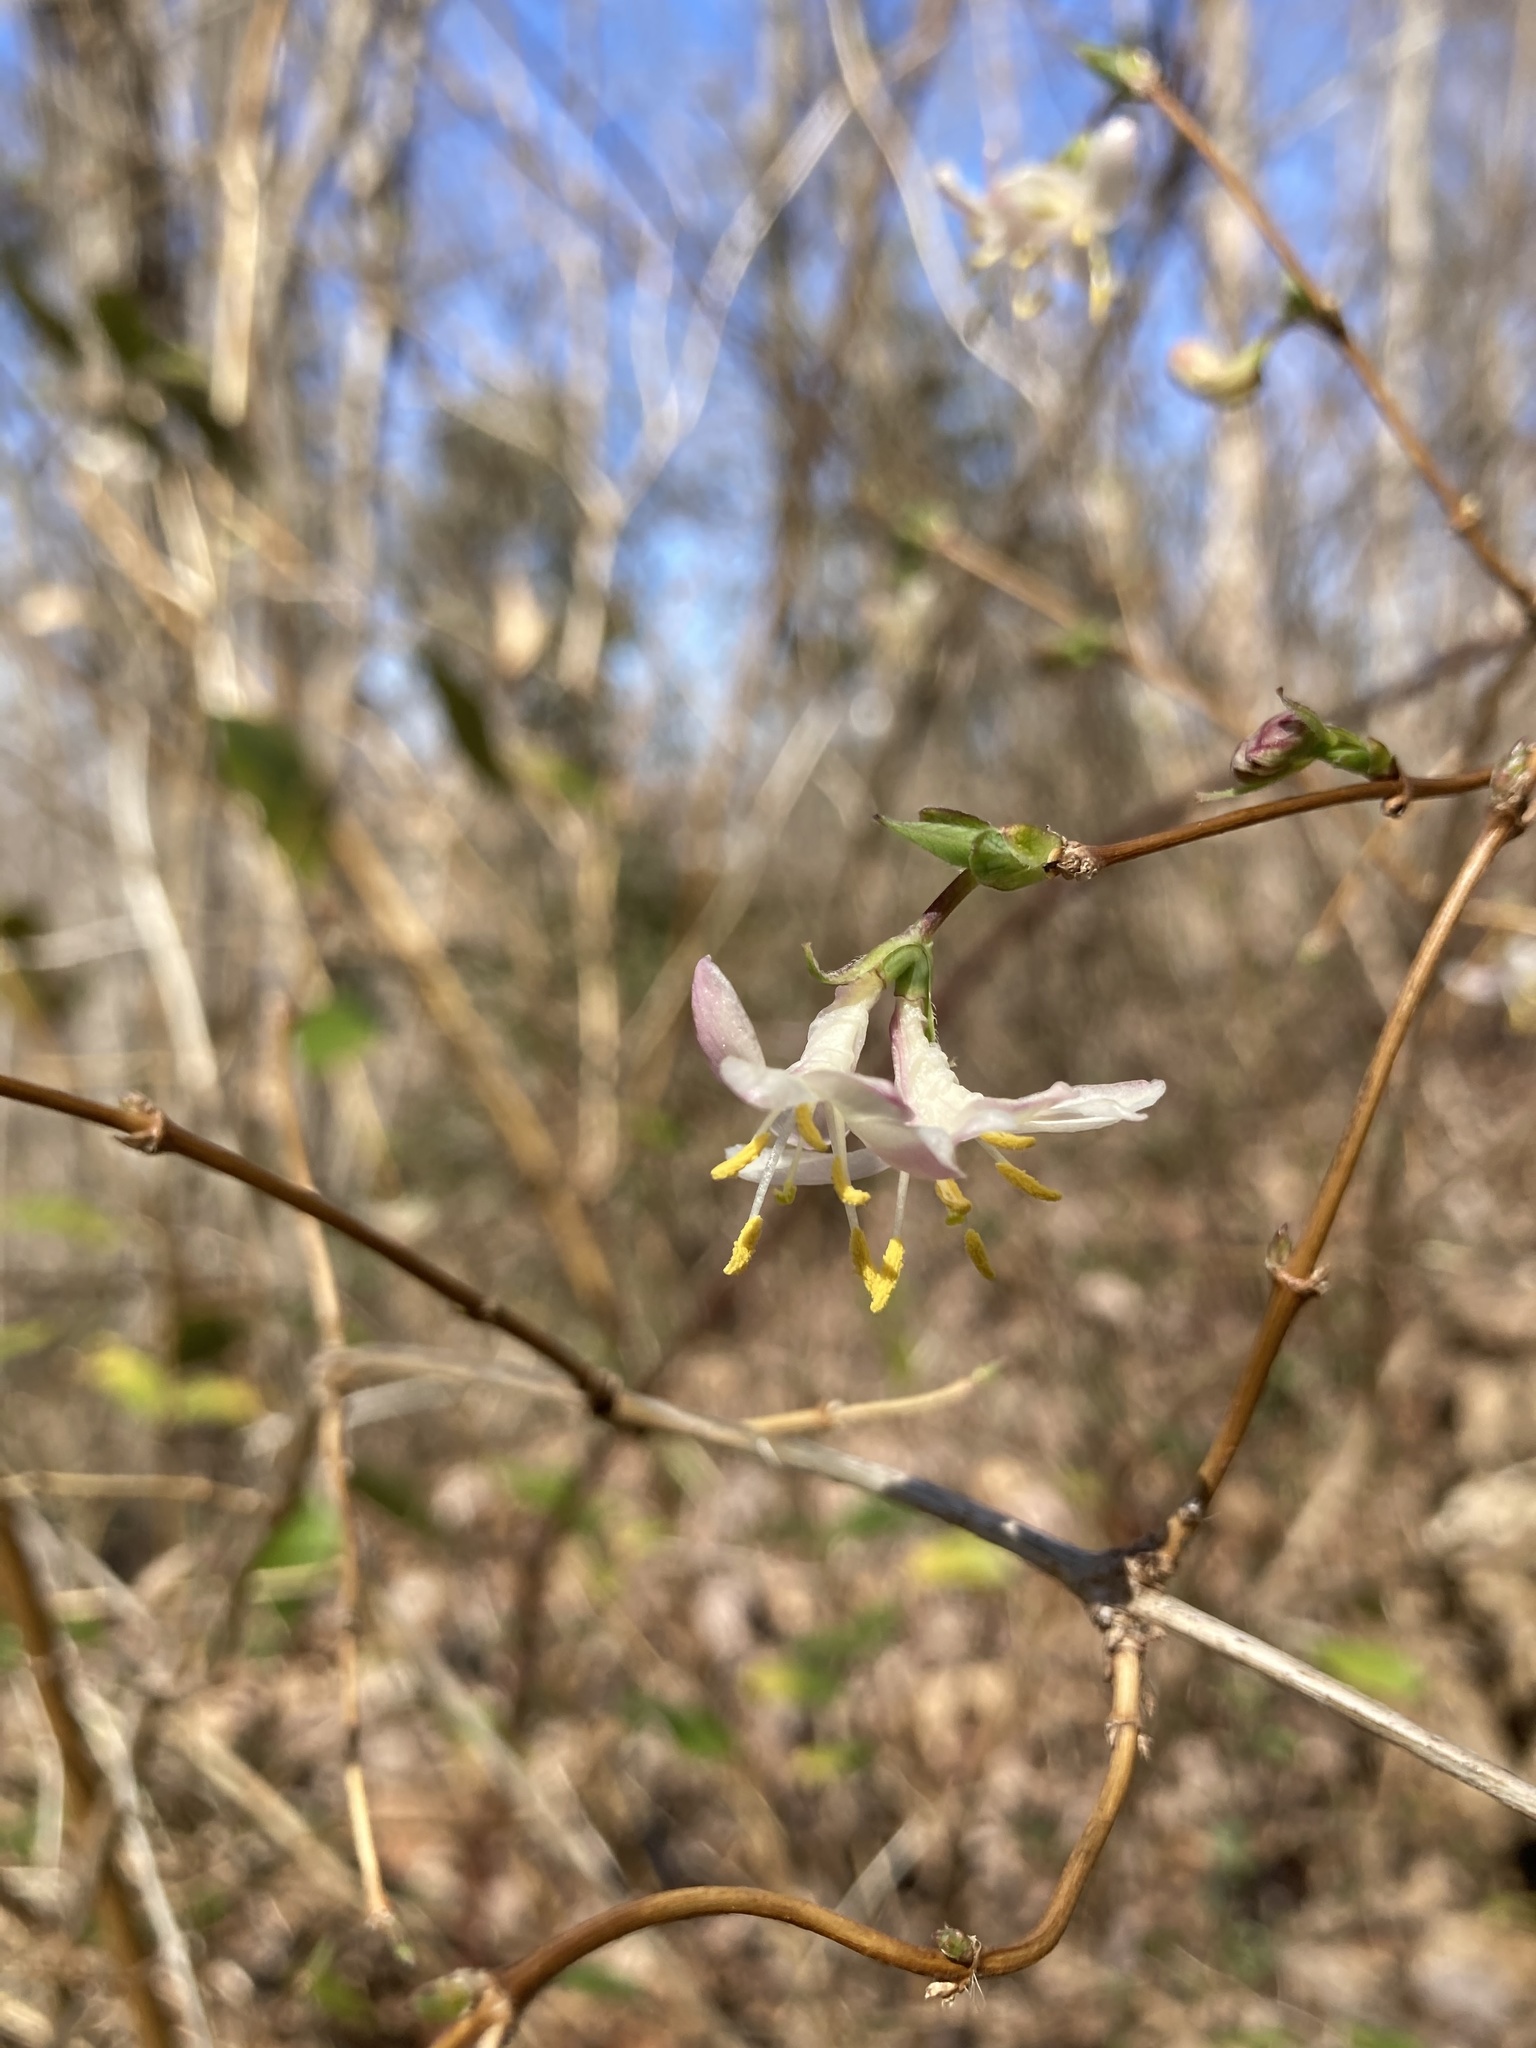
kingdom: Plantae
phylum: Tracheophyta
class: Magnoliopsida
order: Dipsacales
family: Caprifoliaceae
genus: Lonicera
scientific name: Lonicera fragrantissima
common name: Fragrant honeysuckle
